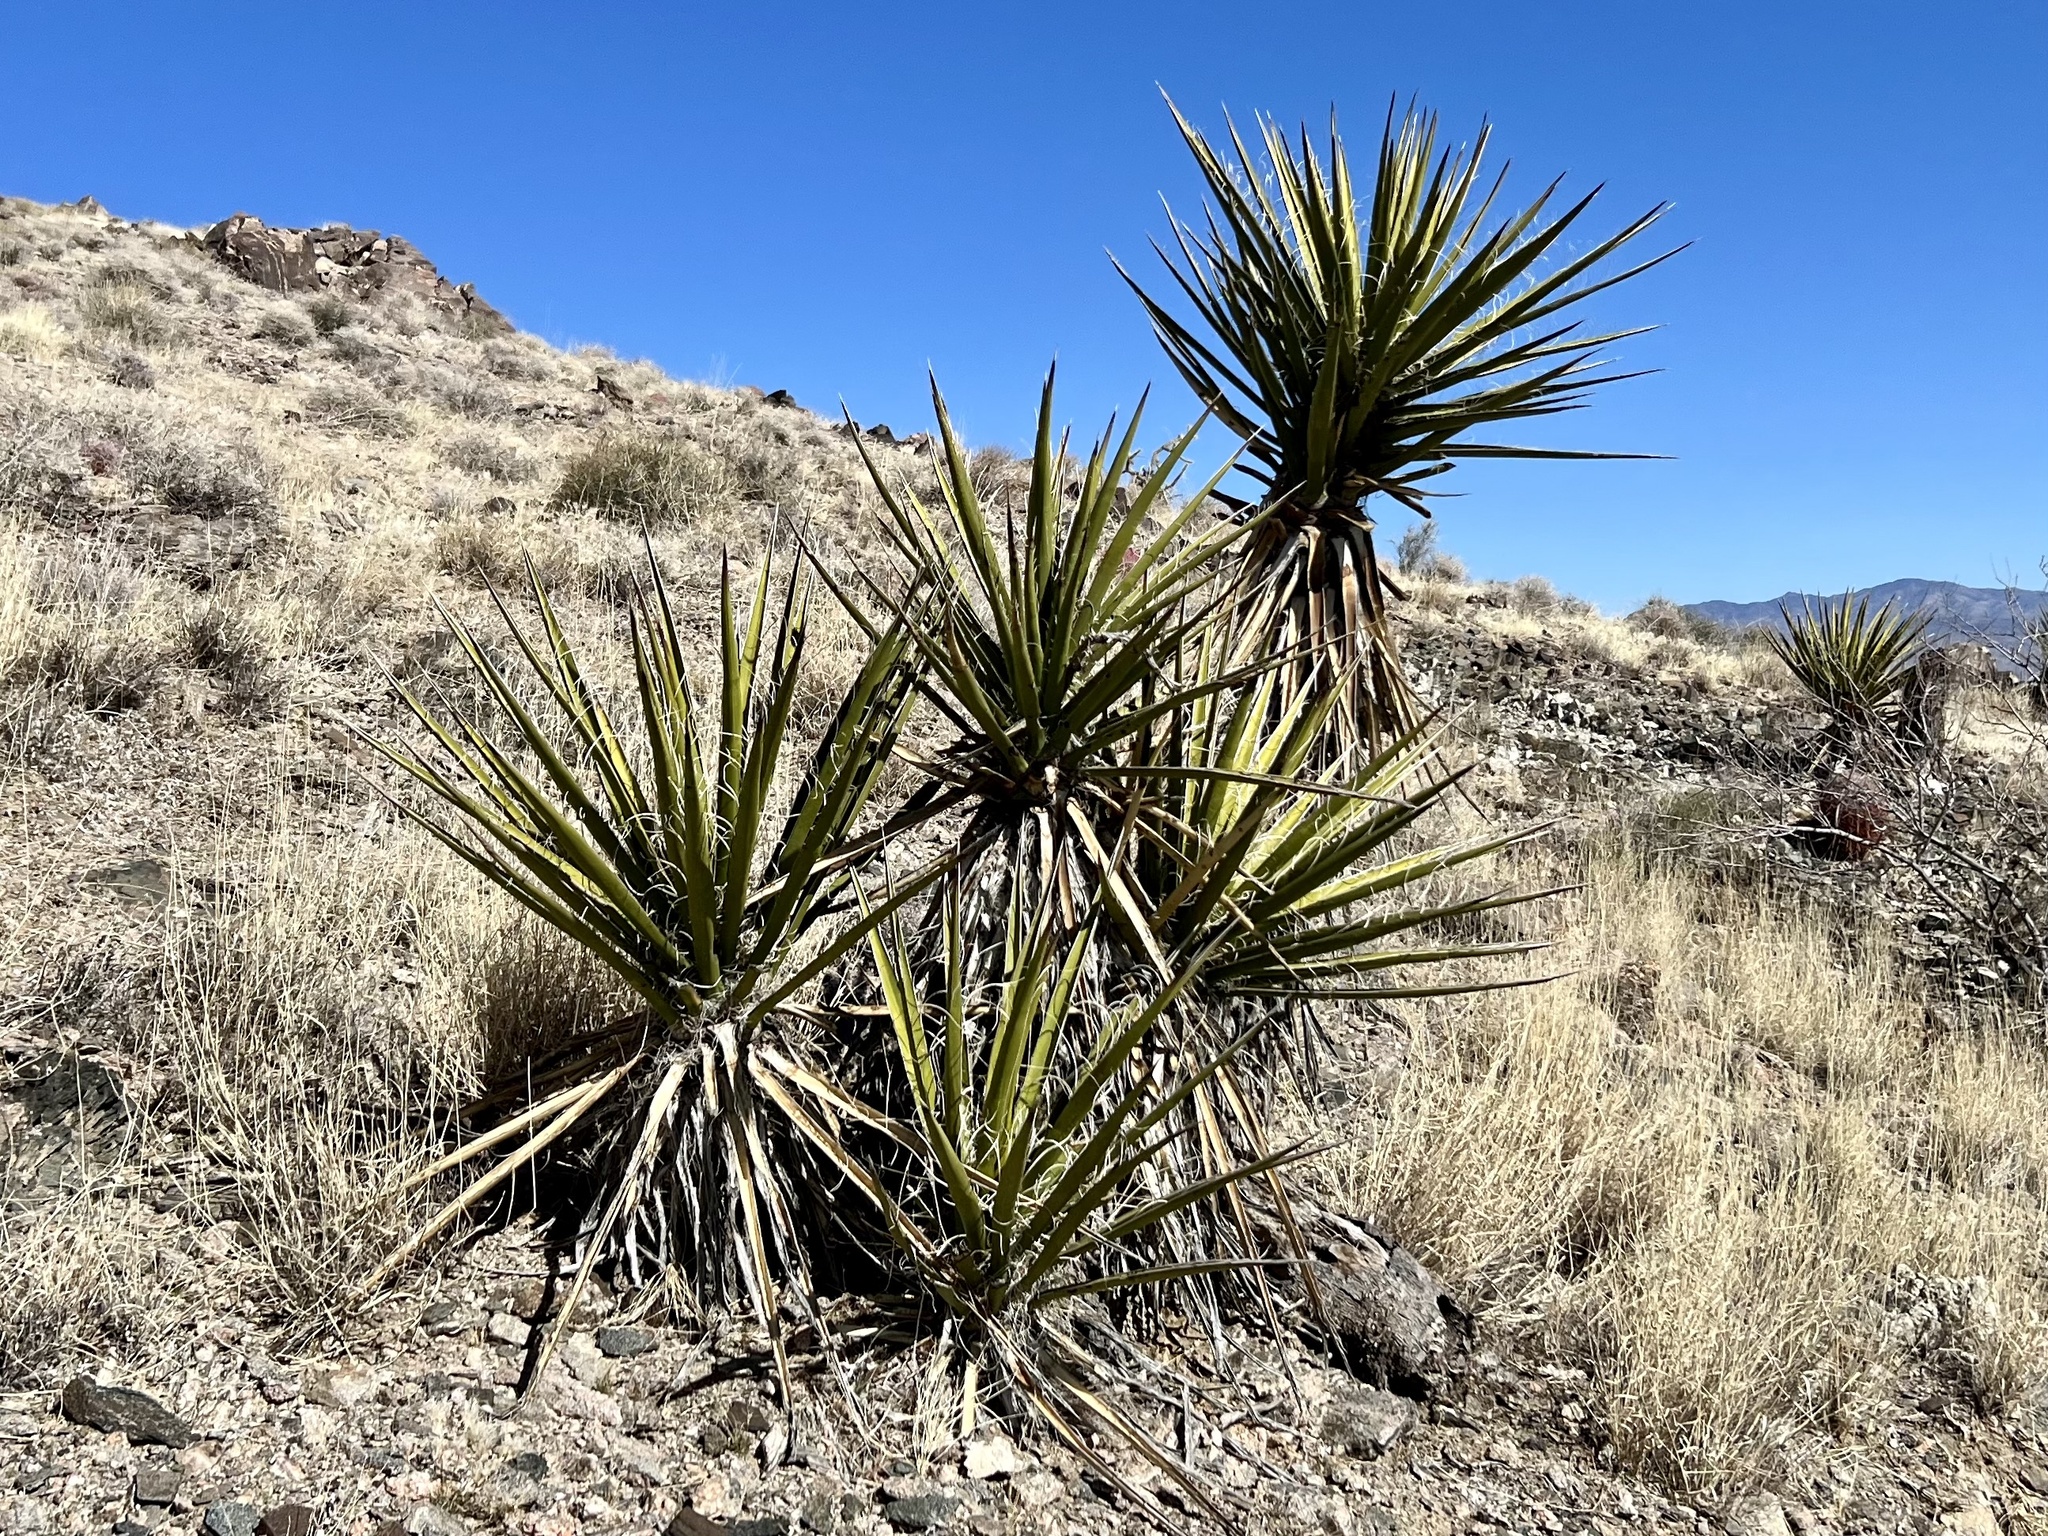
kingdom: Plantae
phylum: Tracheophyta
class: Liliopsida
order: Asparagales
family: Asparagaceae
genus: Yucca
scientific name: Yucca schidigera
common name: Mojave yucca
